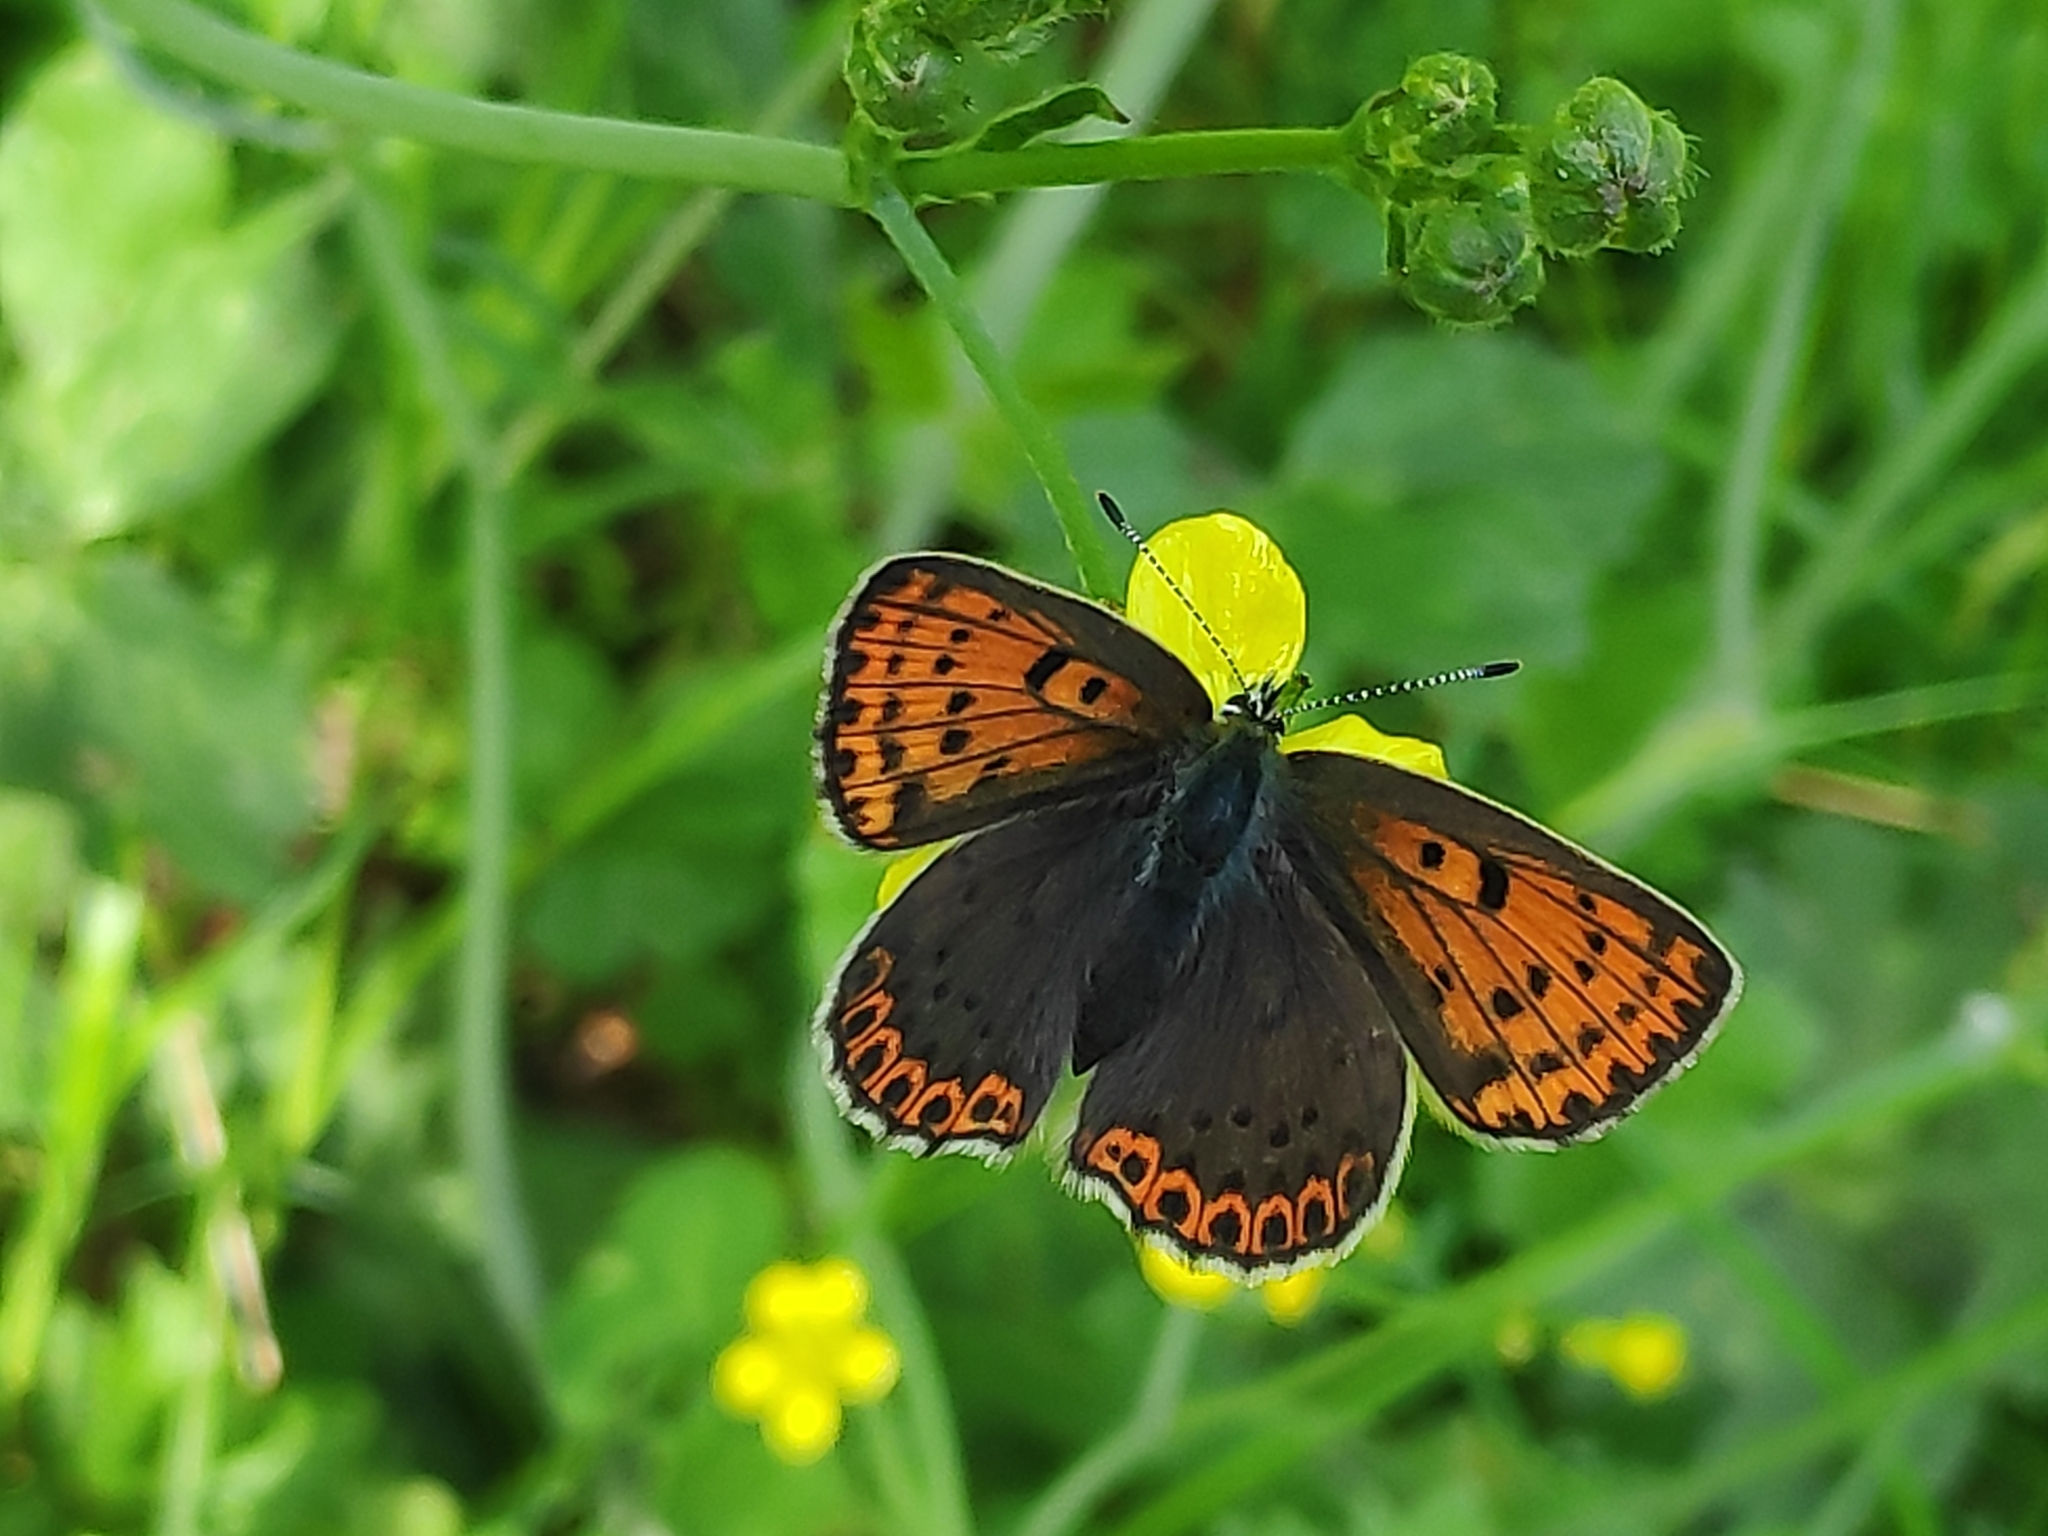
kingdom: Animalia
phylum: Arthropoda
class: Insecta
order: Lepidoptera
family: Lycaenidae
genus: Loweia
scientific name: Loweia tityrus
